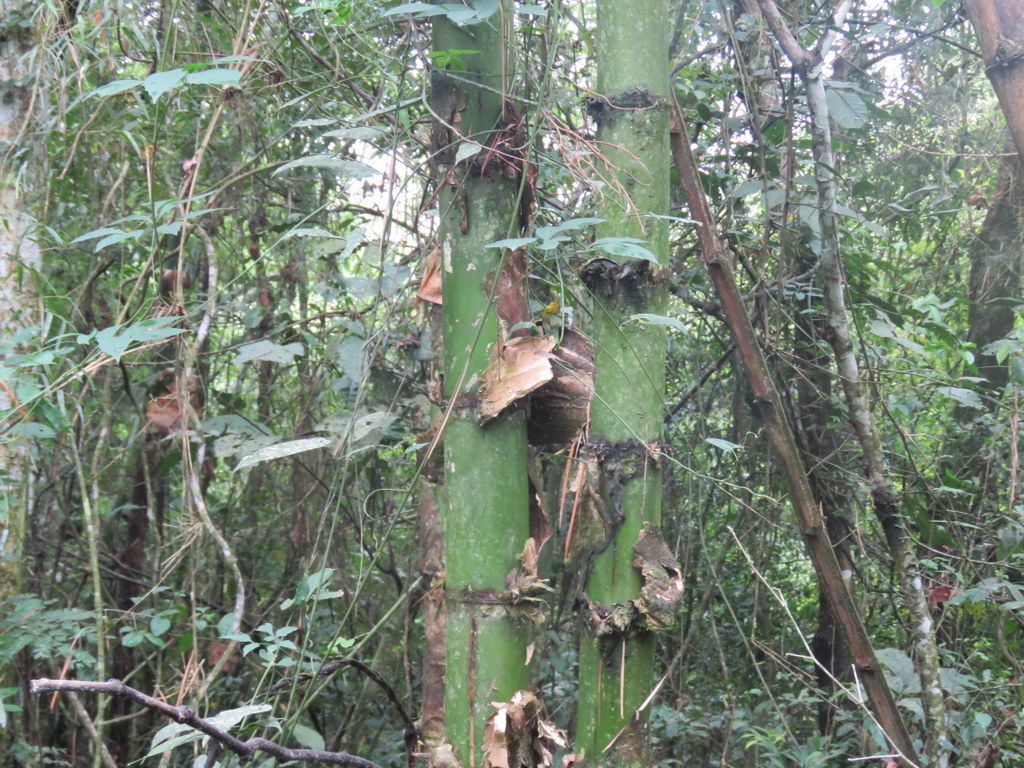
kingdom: Plantae
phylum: Tracheophyta
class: Liliopsida
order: Poales
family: Poaceae
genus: Guadua
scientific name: Guadua trinii
